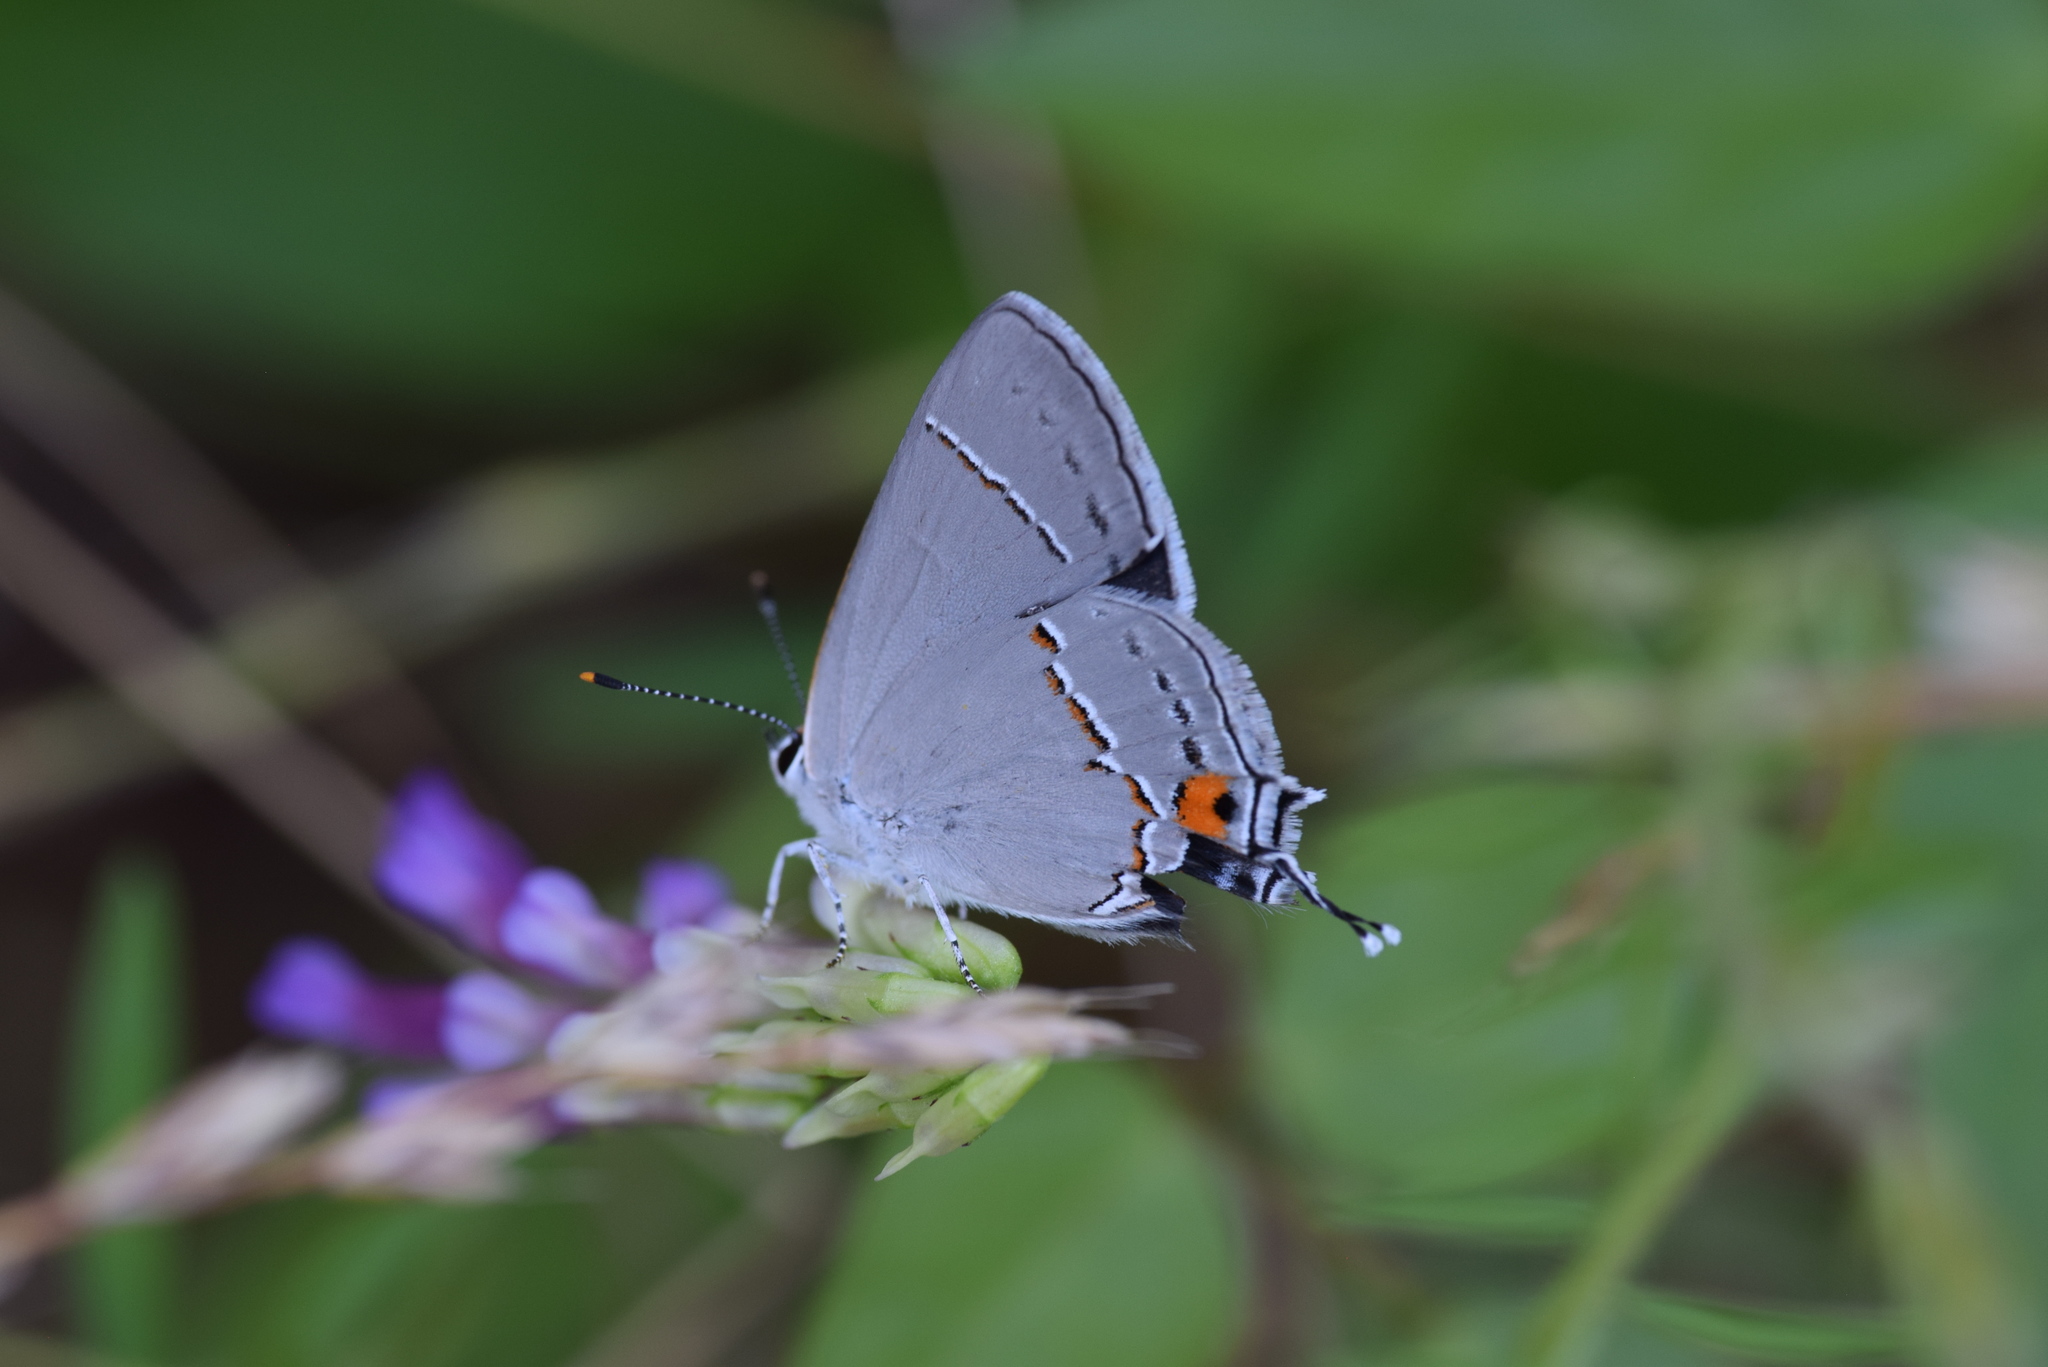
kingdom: Animalia
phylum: Arthropoda
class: Insecta
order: Lepidoptera
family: Lycaenidae
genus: Strymon
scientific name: Strymon melinus
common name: Gray hairstreak
